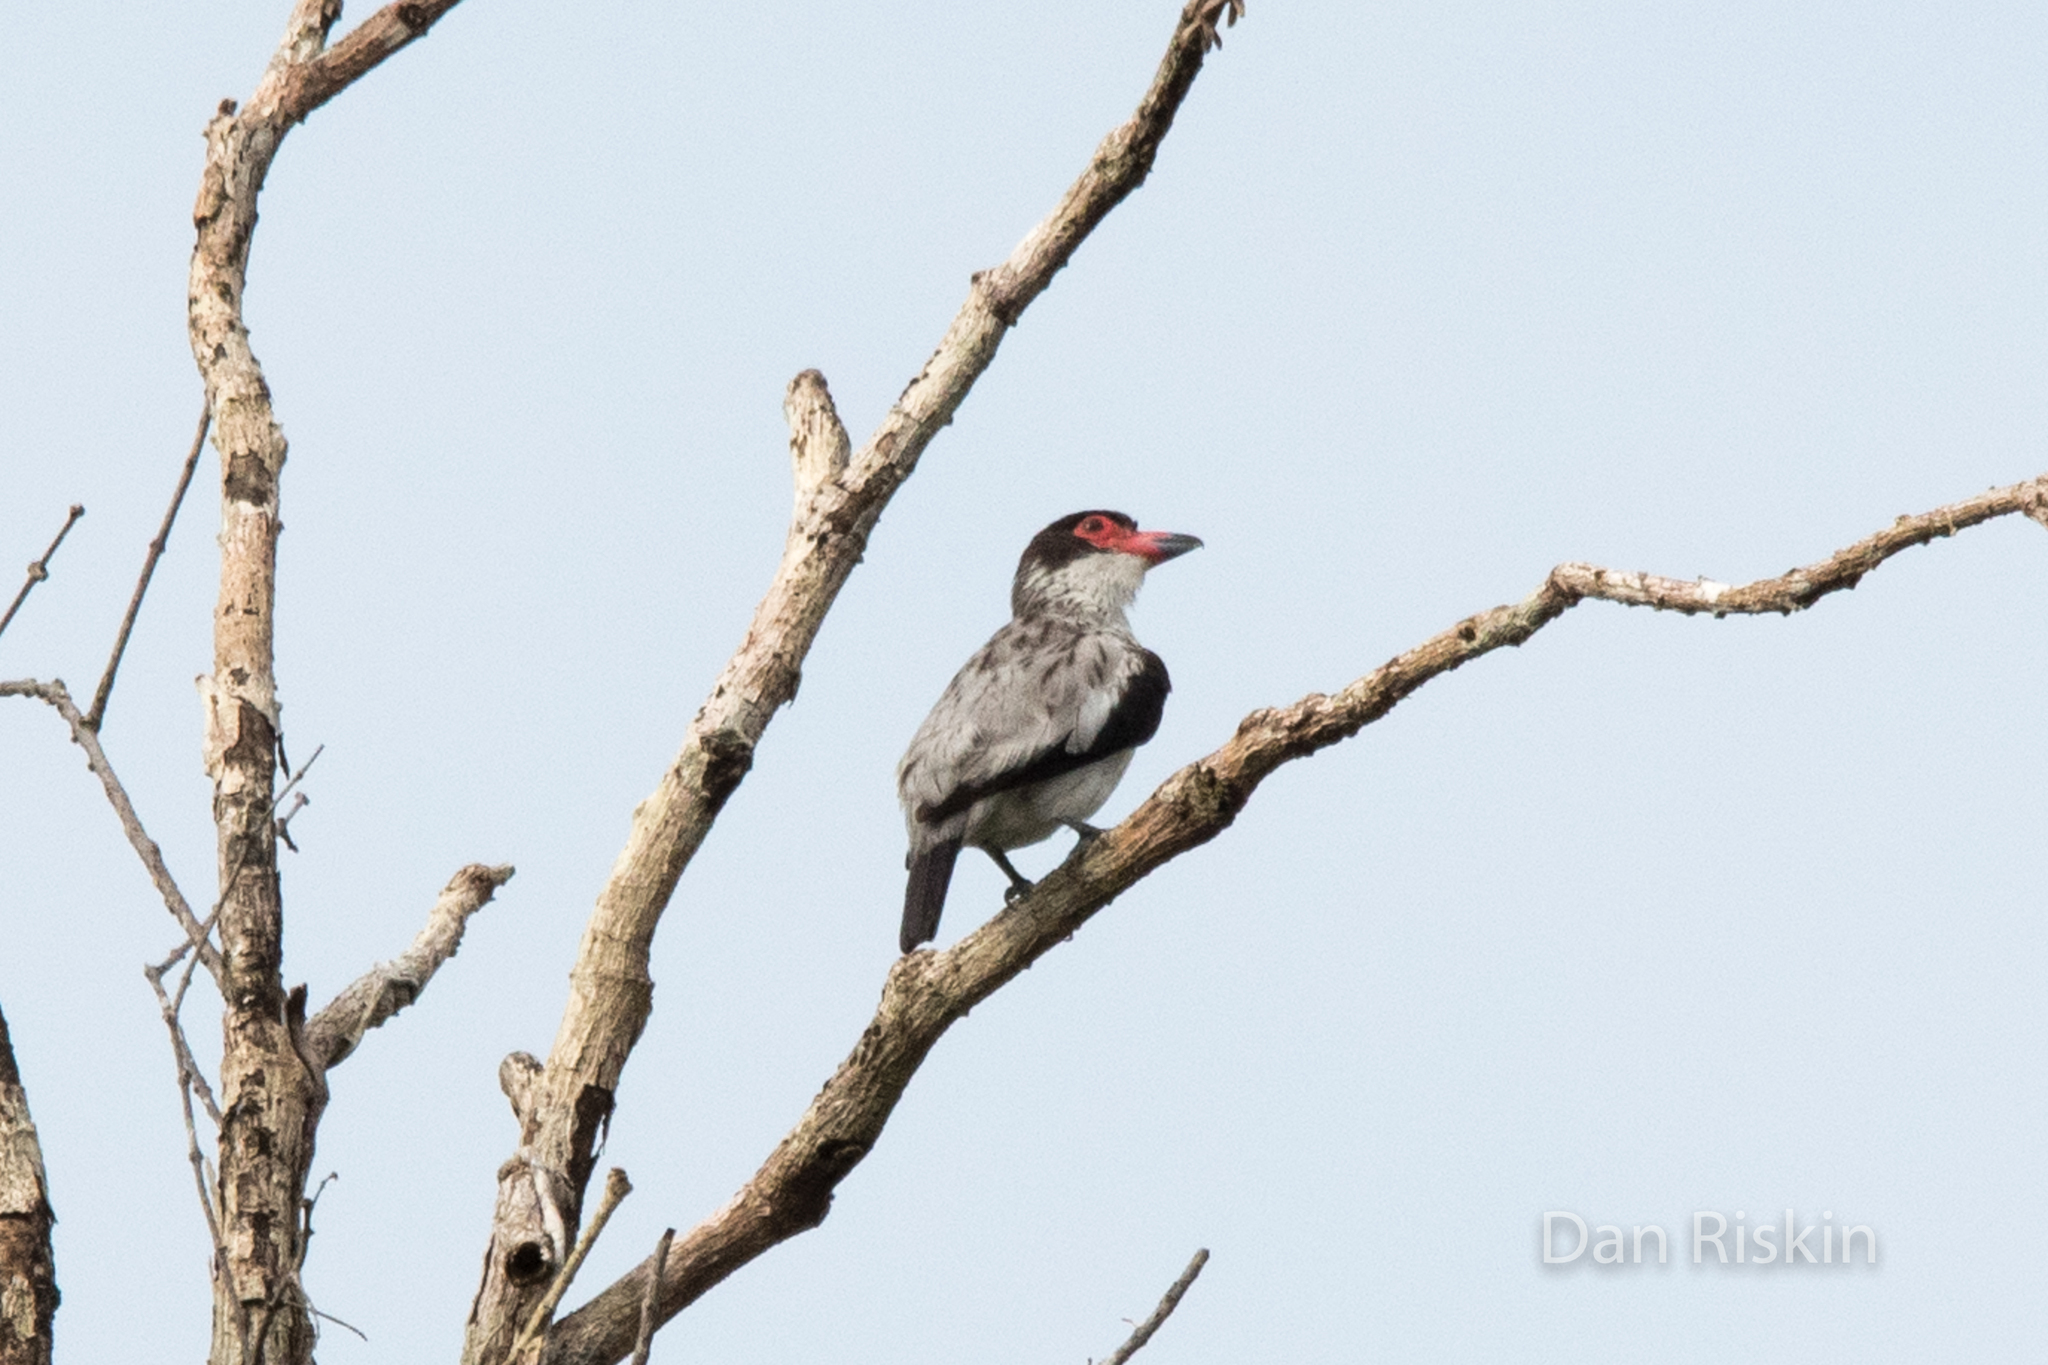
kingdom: Animalia
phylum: Chordata
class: Aves
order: Passeriformes
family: Cotingidae
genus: Tityra
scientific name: Tityra semifasciata
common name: Masked tityra
